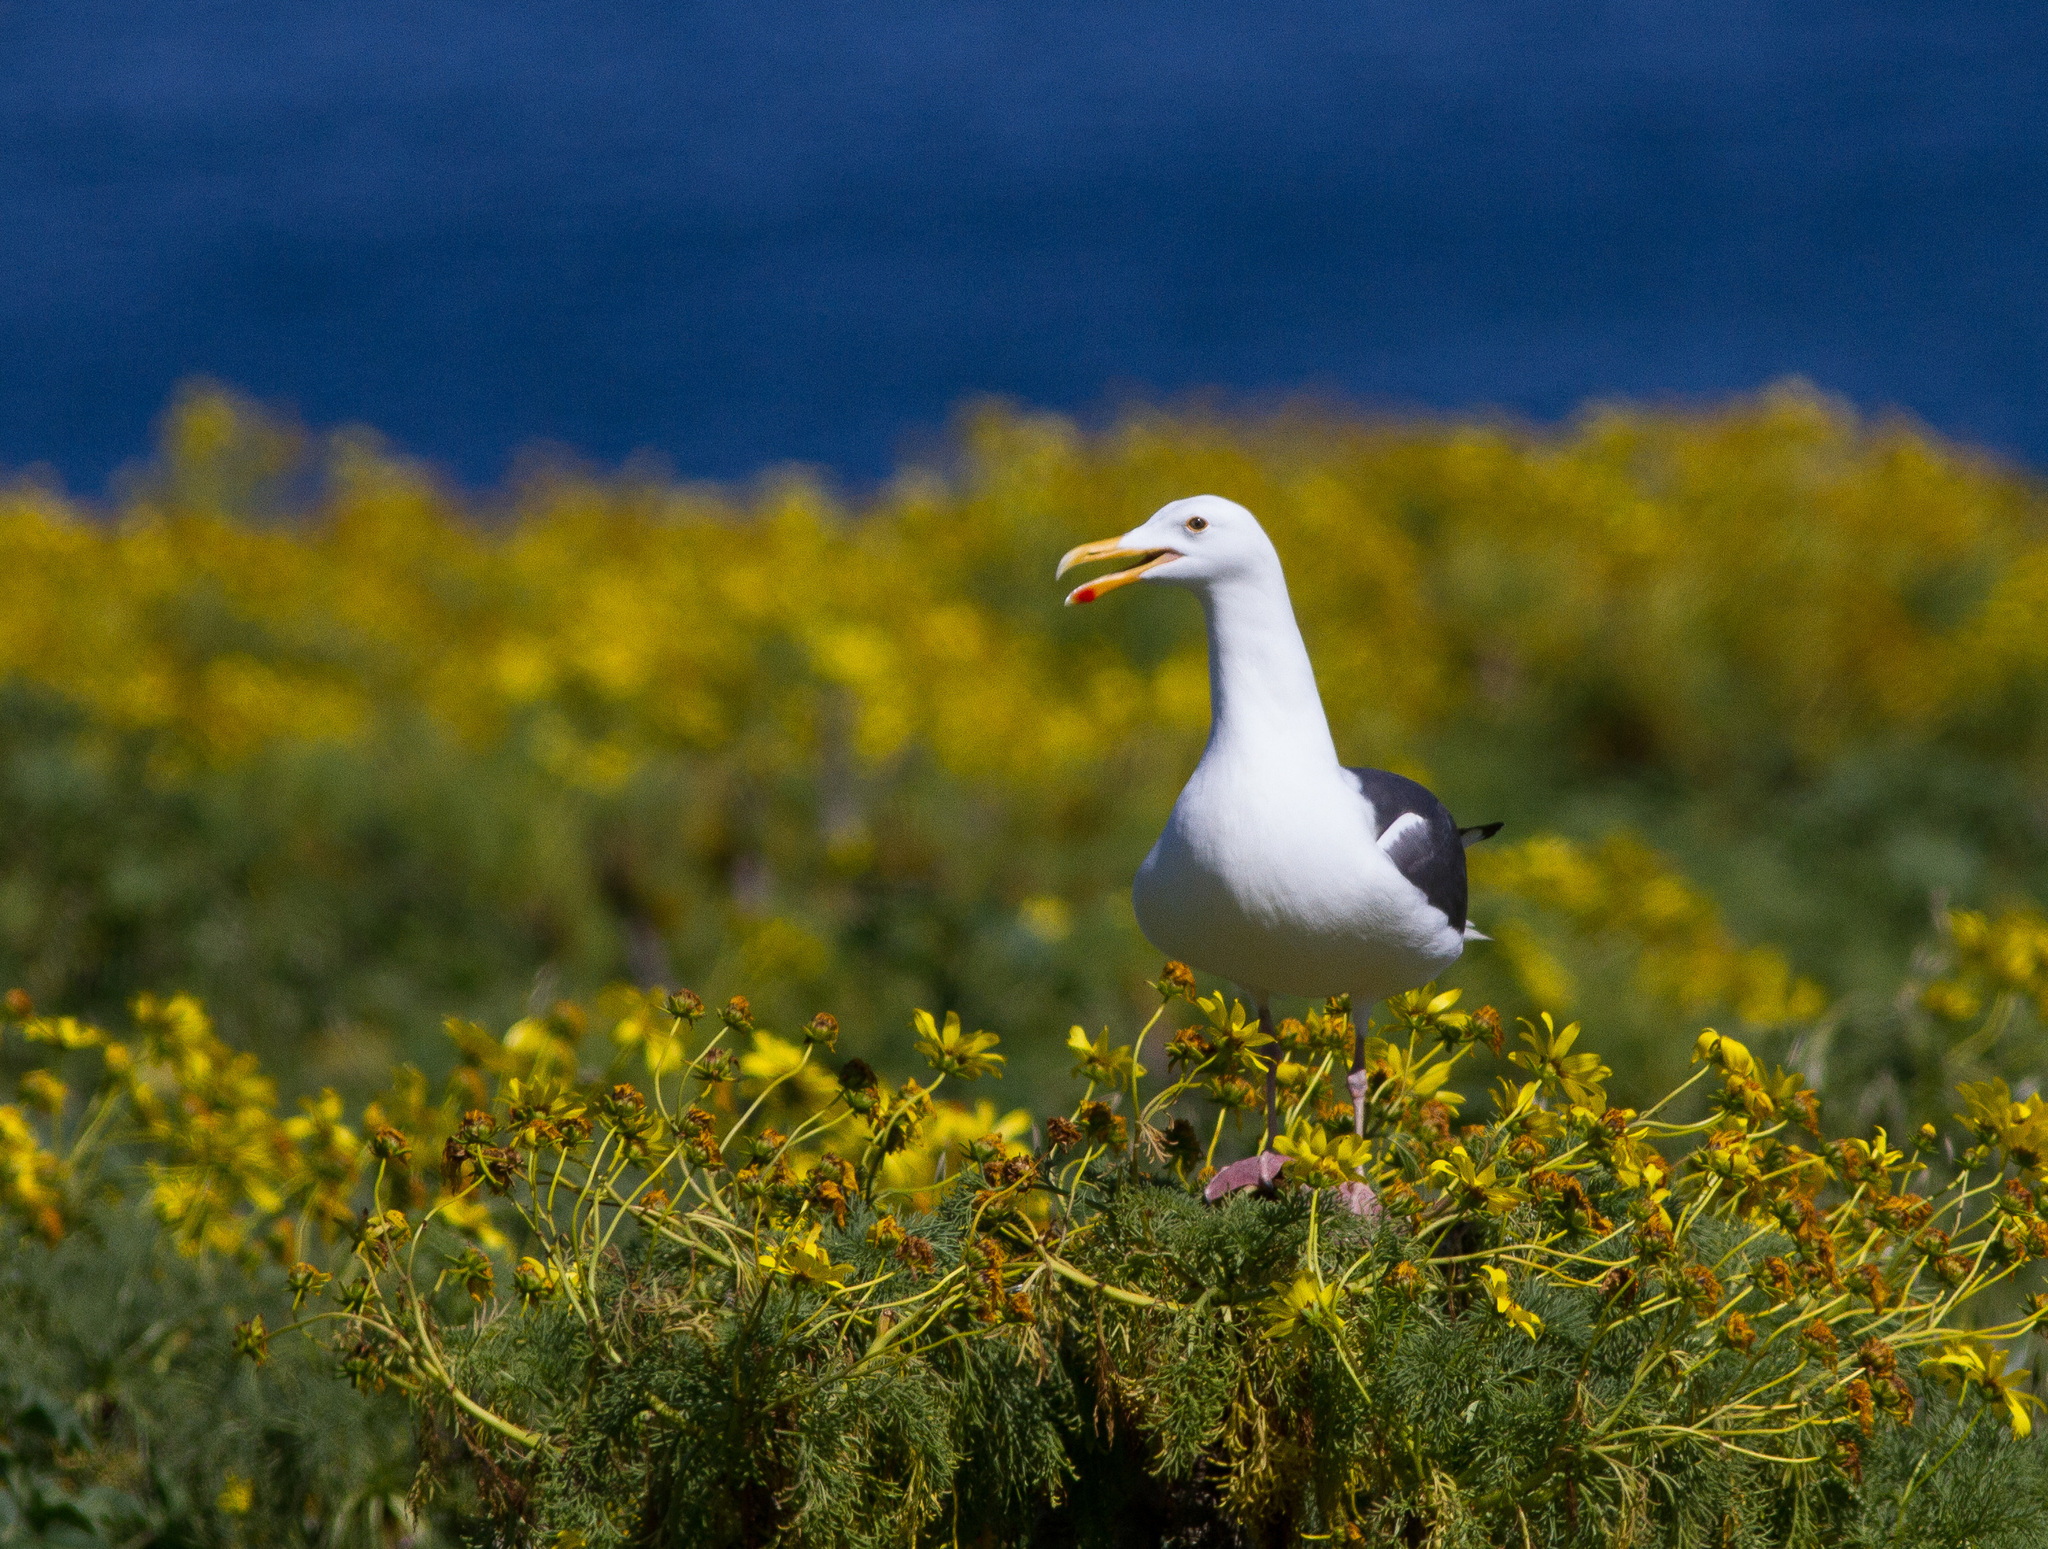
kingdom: Animalia
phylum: Chordata
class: Aves
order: Charadriiformes
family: Laridae
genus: Larus
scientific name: Larus occidentalis
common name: Western gull
